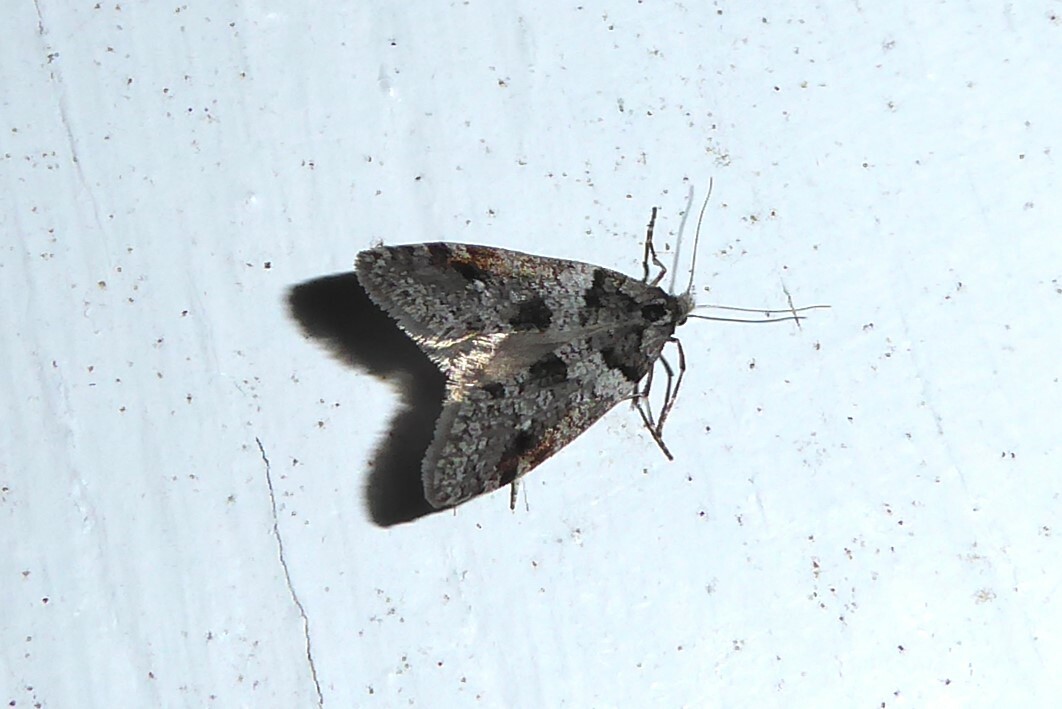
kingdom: Animalia
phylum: Arthropoda
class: Insecta
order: Lepidoptera
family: Psychidae
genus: Lepidoscia
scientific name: Lepidoscia heliochares
